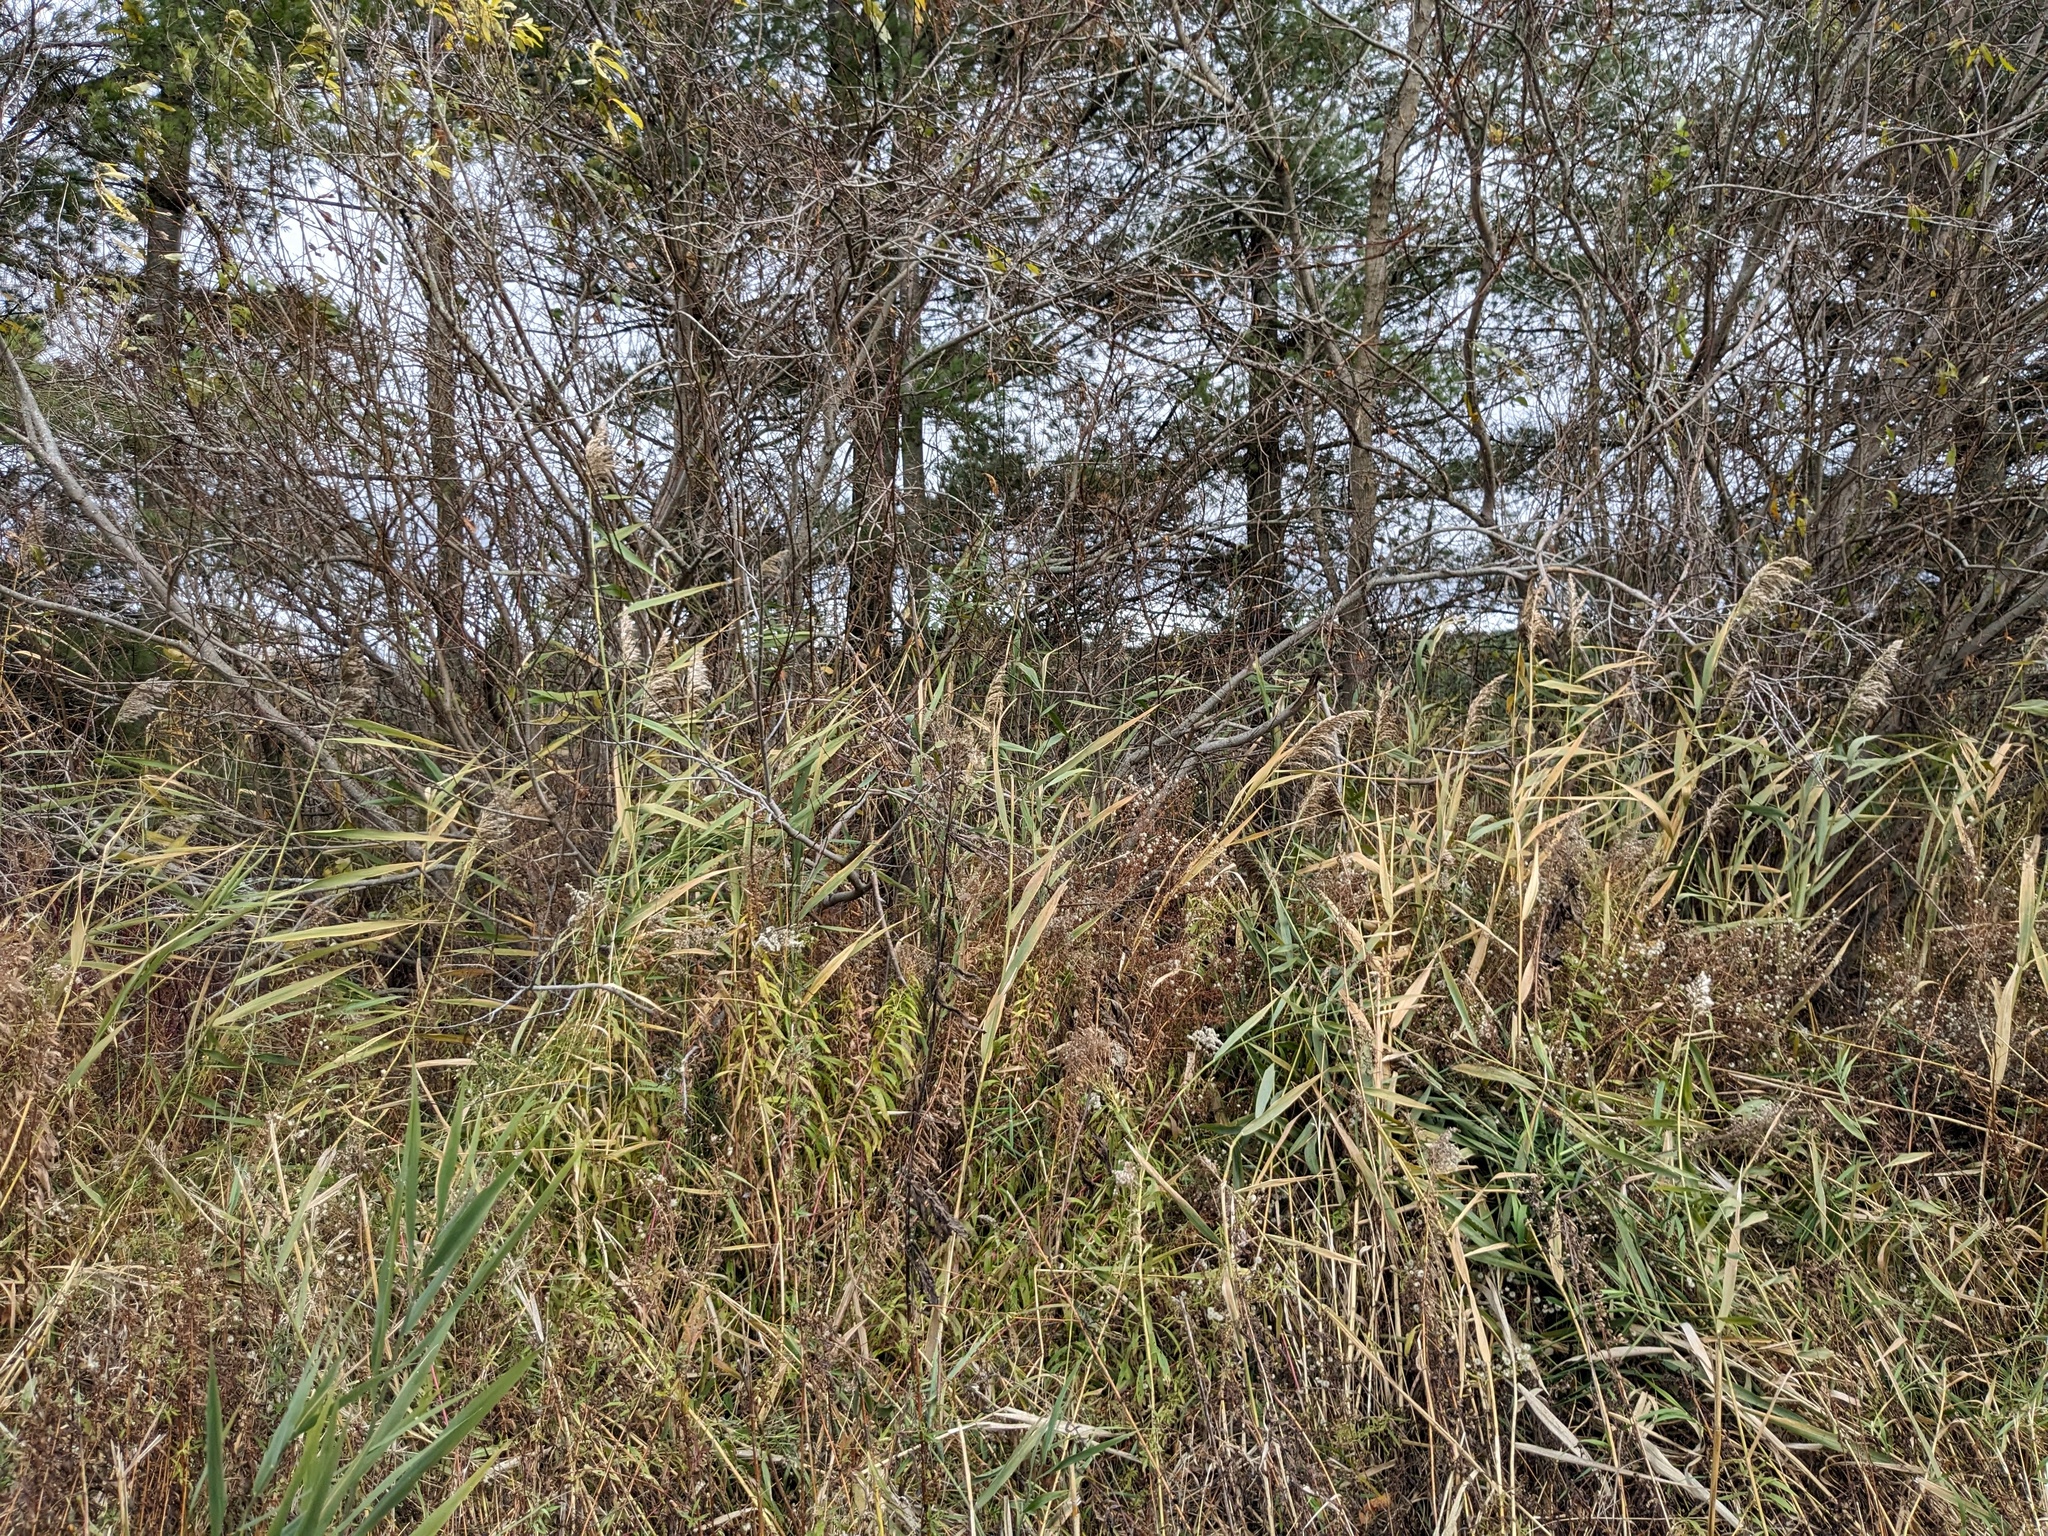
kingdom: Plantae
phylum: Tracheophyta
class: Liliopsida
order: Poales
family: Poaceae
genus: Phragmites
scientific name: Phragmites australis
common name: Common reed
